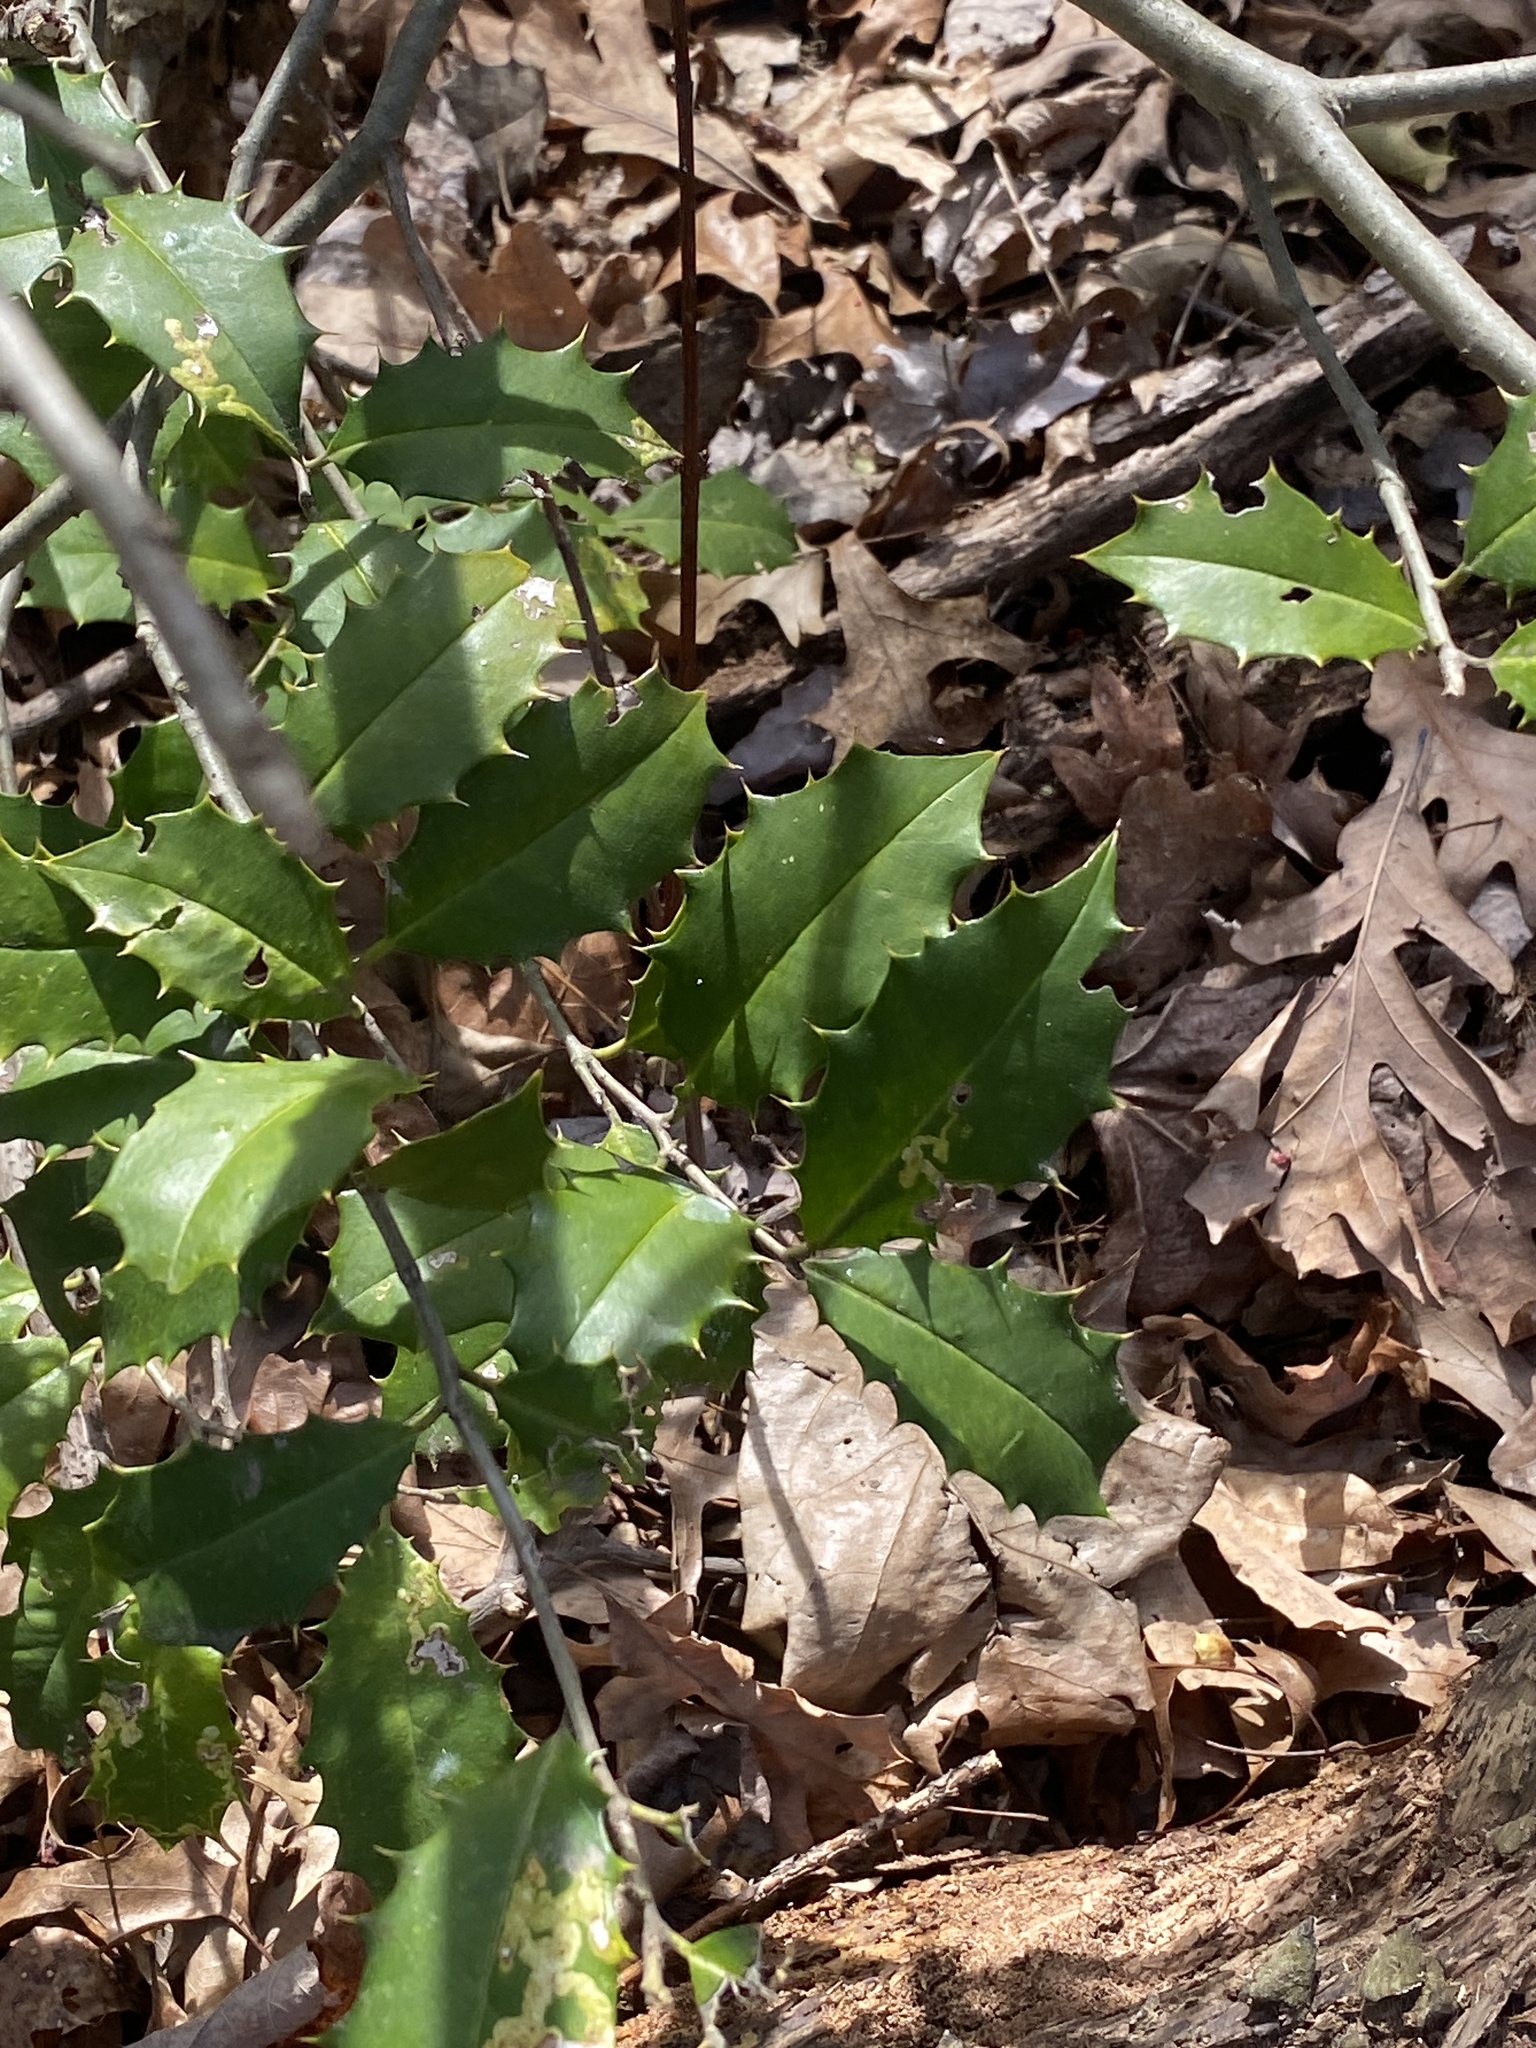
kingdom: Plantae
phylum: Tracheophyta
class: Magnoliopsida
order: Aquifoliales
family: Aquifoliaceae
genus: Ilex
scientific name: Ilex opaca
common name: American holly
